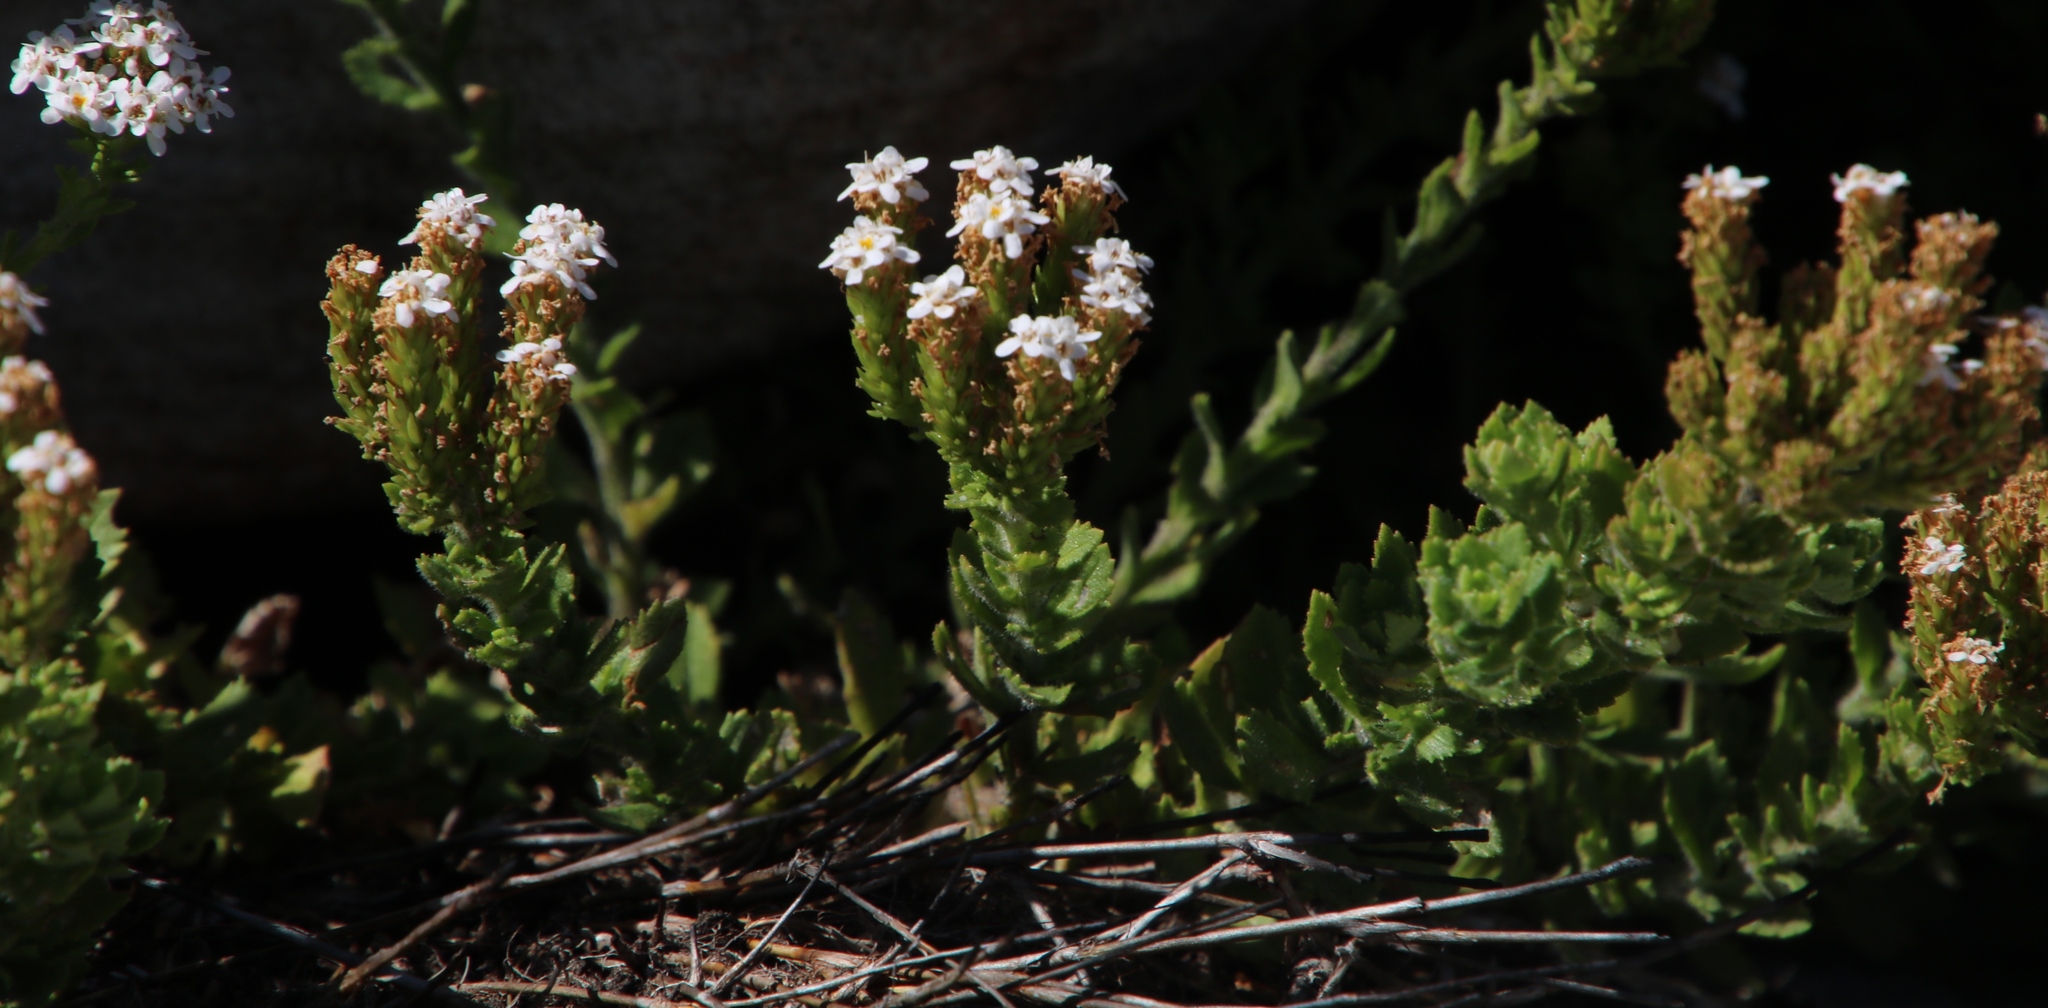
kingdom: Plantae
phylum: Tracheophyta
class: Magnoliopsida
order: Lamiales
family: Scrophulariaceae
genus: Pseudoselago
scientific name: Pseudoselago peninsulae
